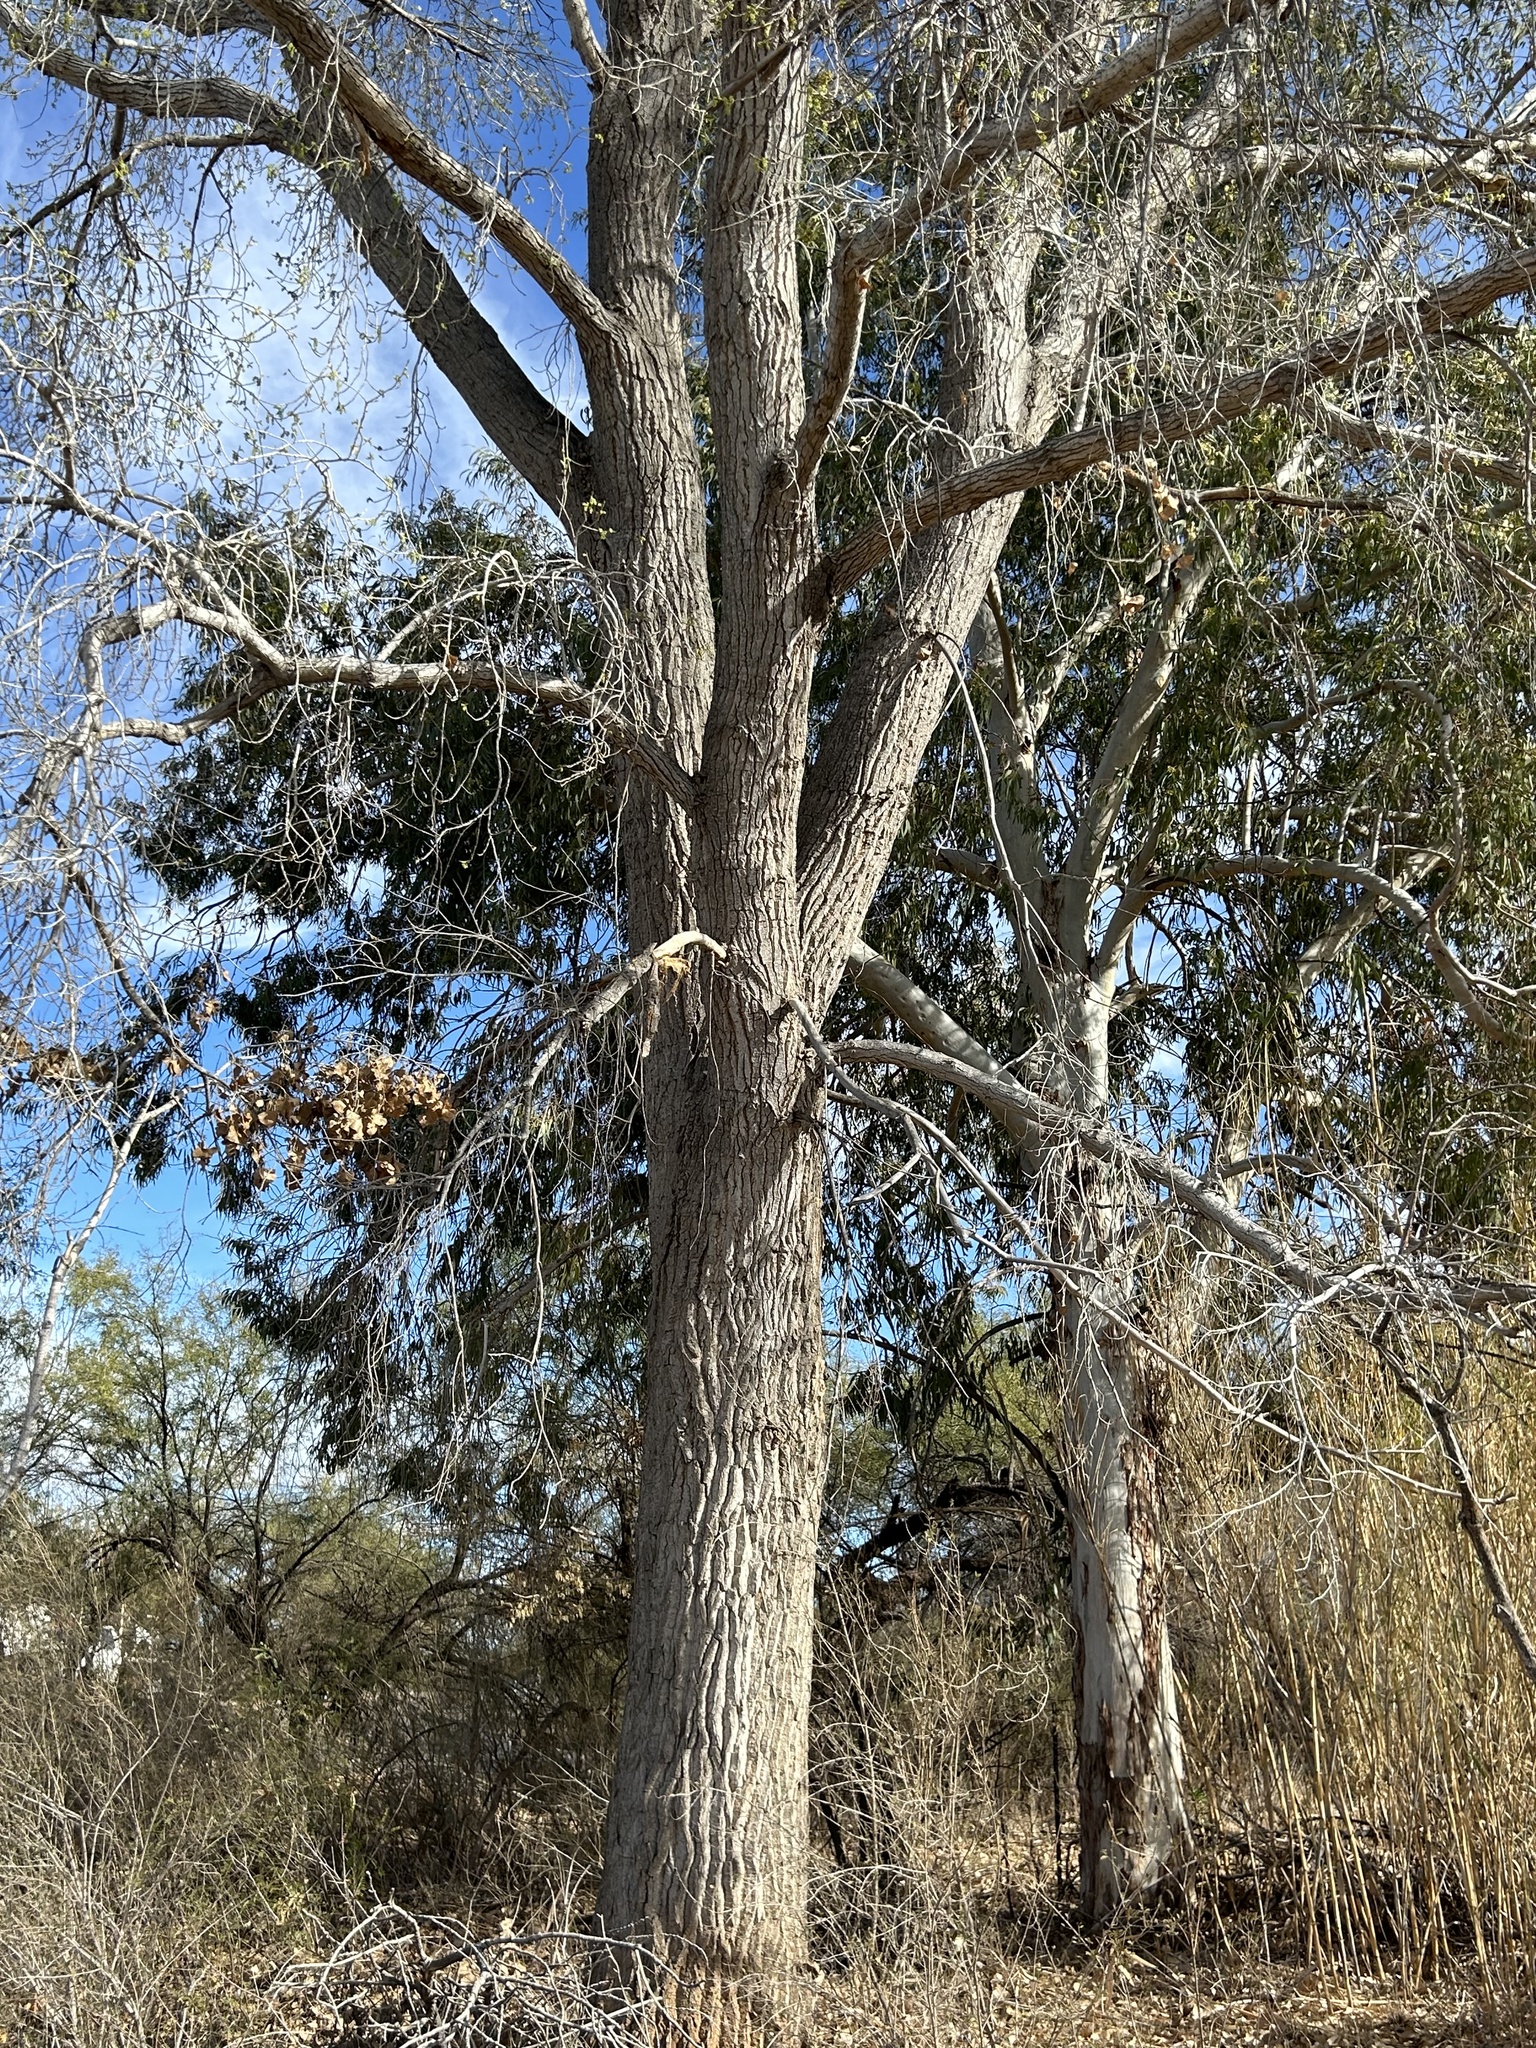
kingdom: Plantae
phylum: Tracheophyta
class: Magnoliopsida
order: Malpighiales
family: Salicaceae
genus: Populus
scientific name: Populus fremontii
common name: Fremont's cottonwood
